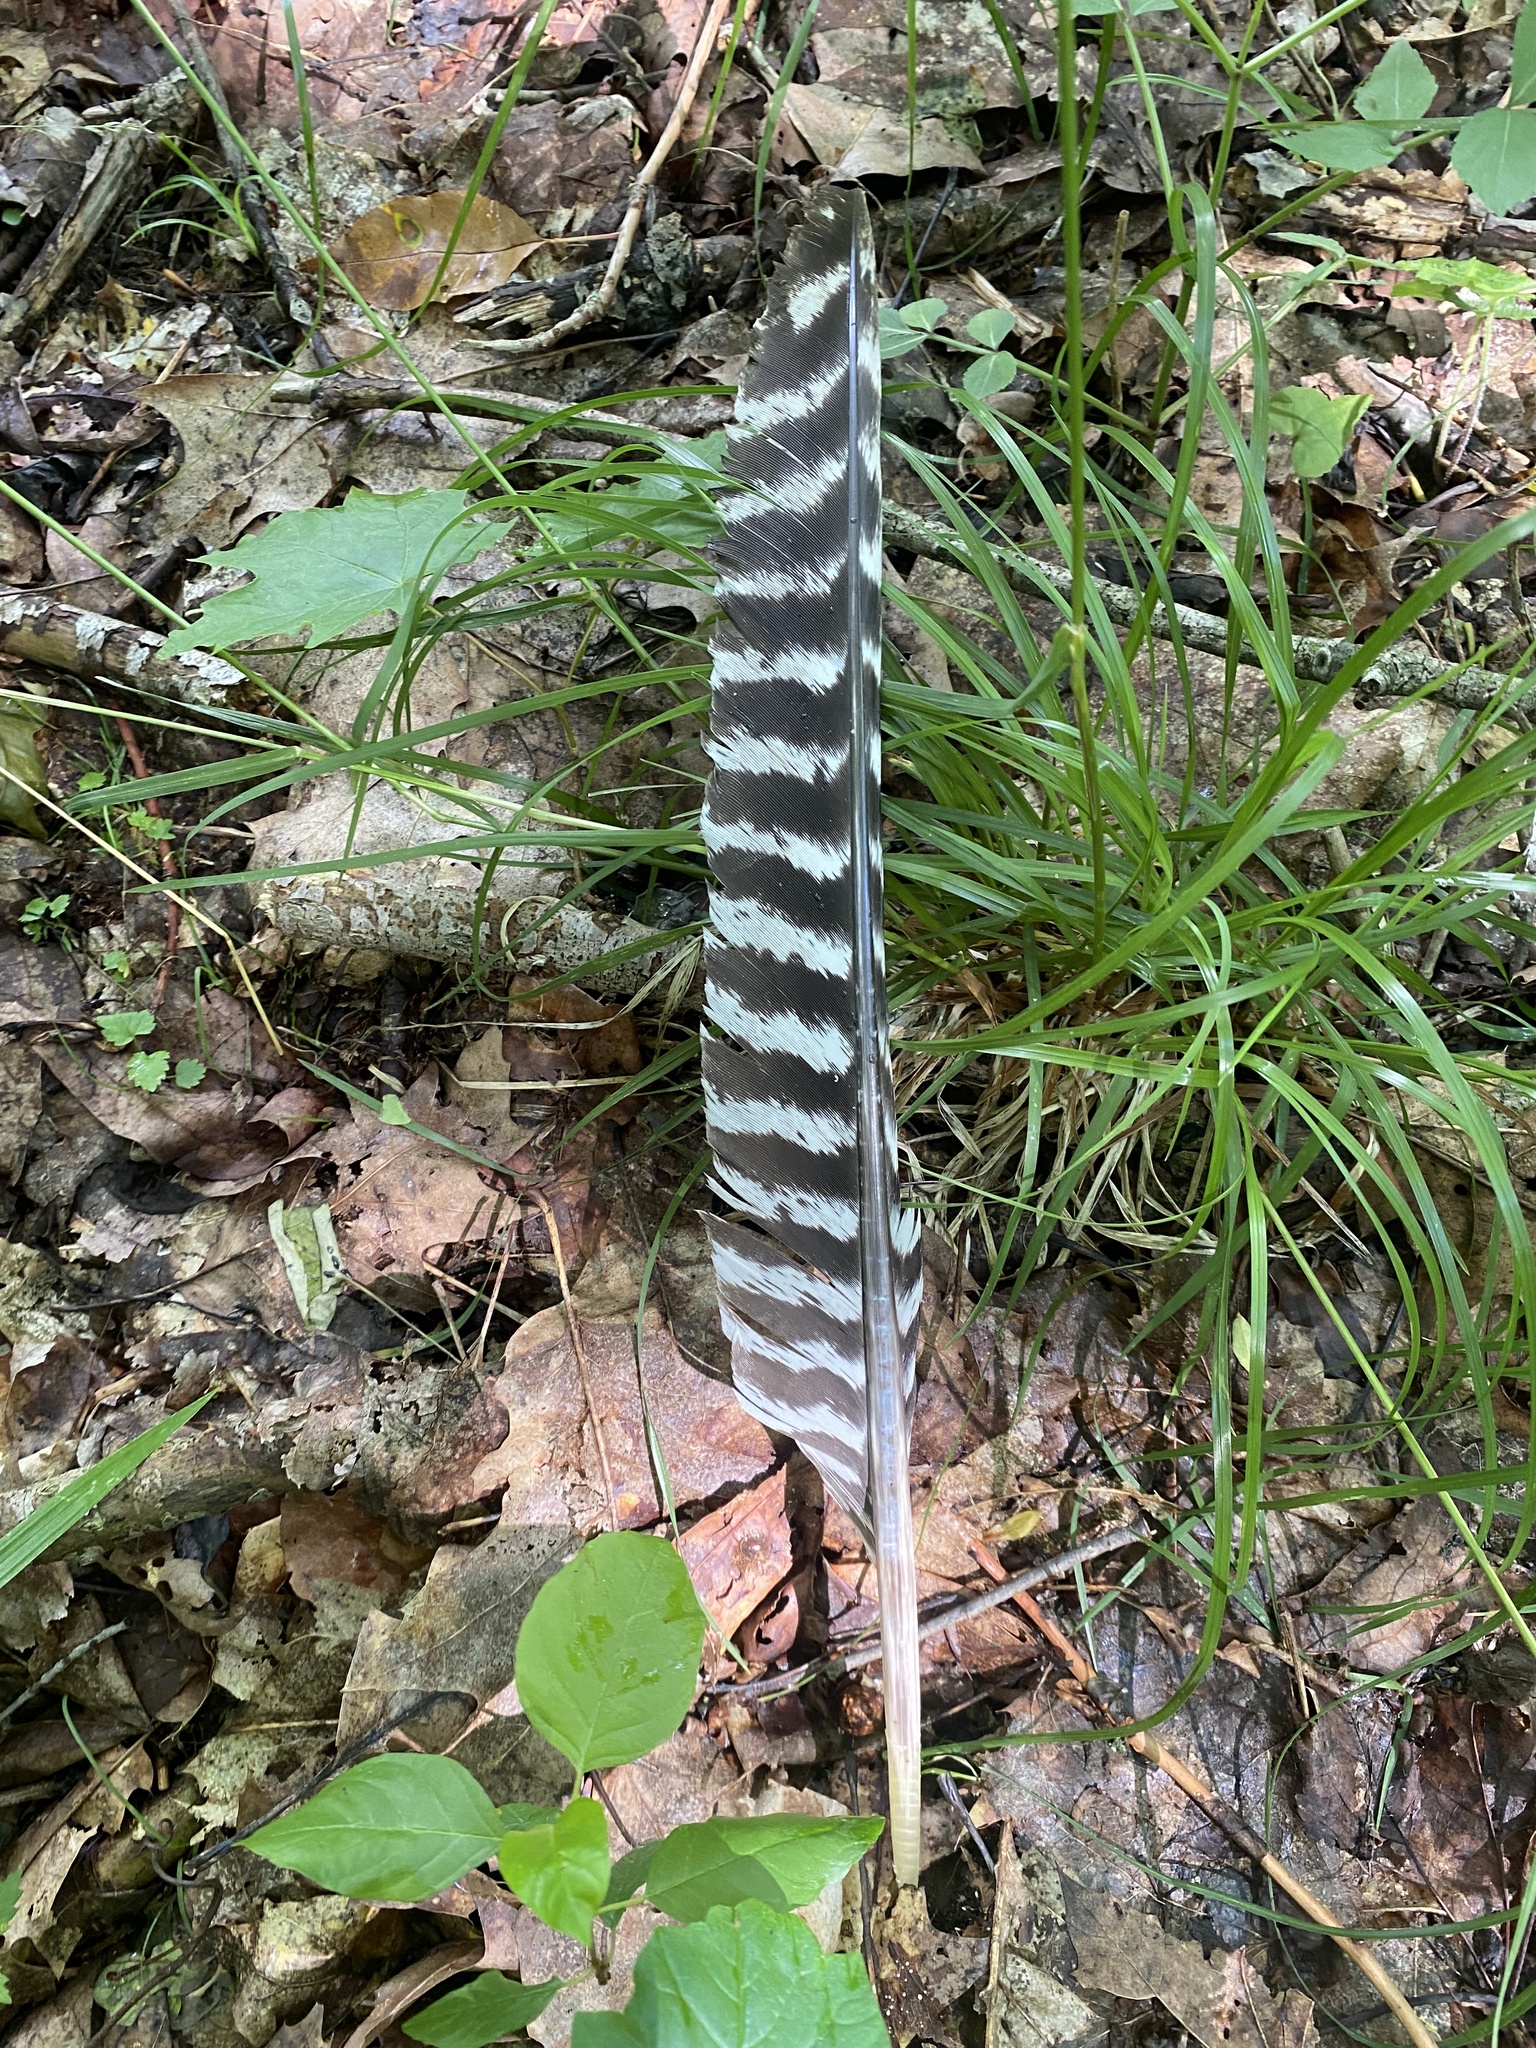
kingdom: Animalia
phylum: Chordata
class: Aves
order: Galliformes
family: Phasianidae
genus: Meleagris
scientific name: Meleagris gallopavo
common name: Wild turkey
